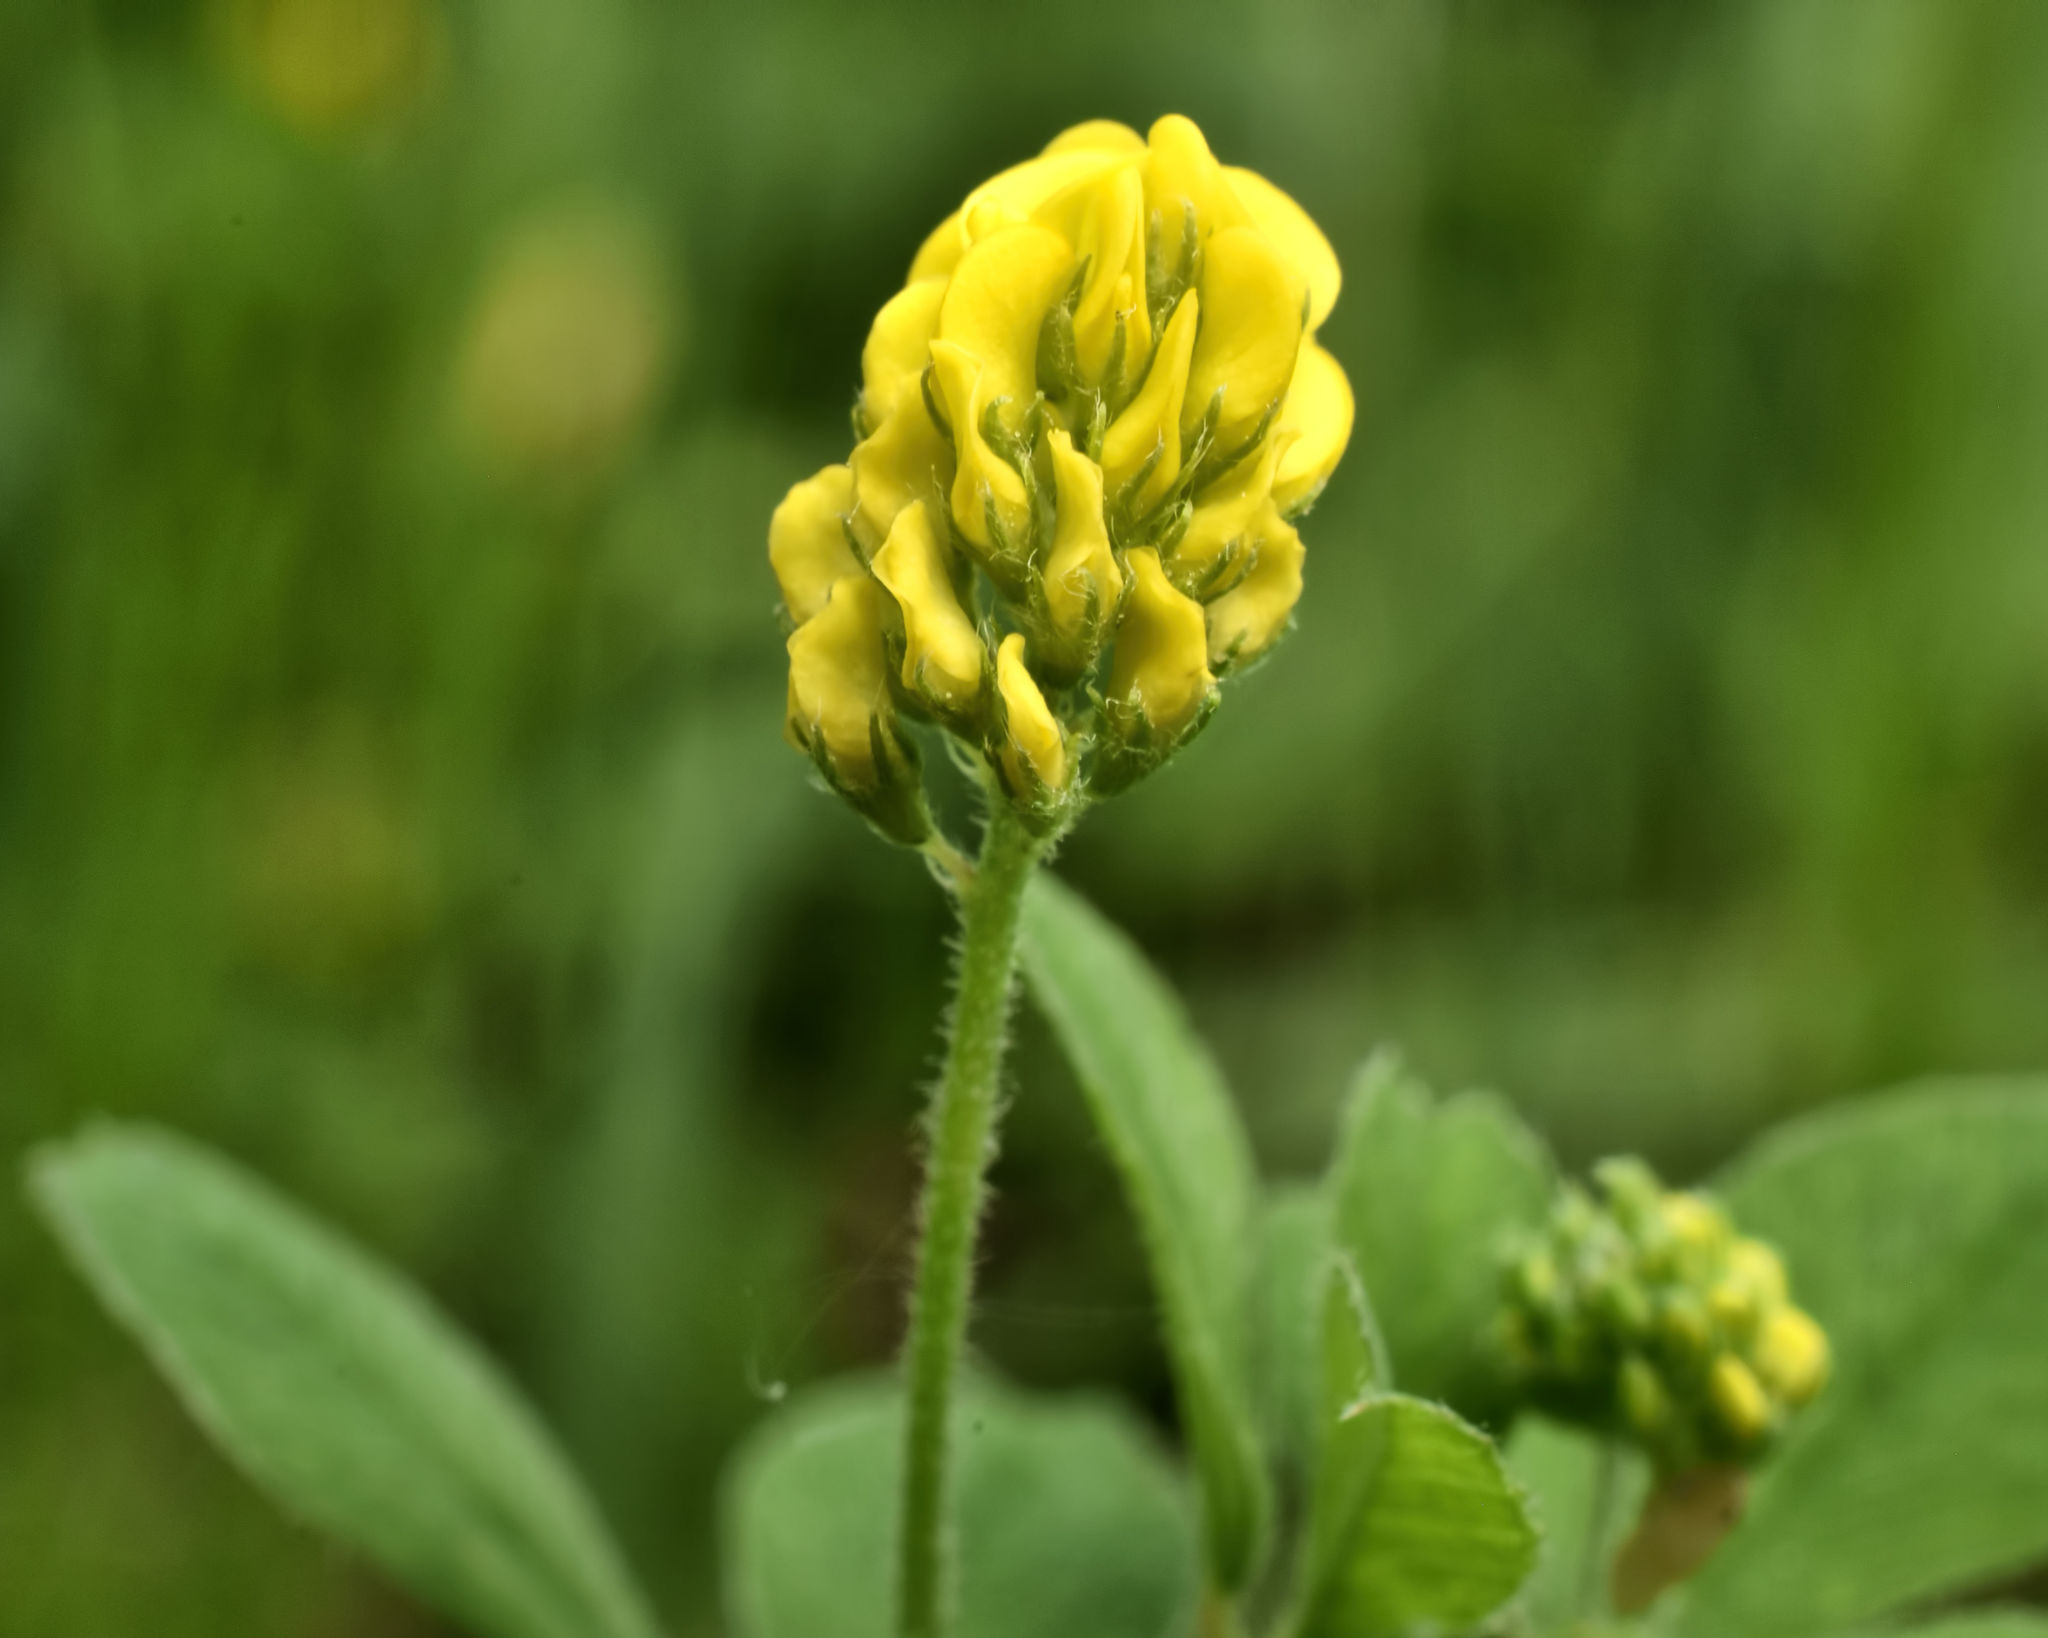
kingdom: Plantae
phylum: Tracheophyta
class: Magnoliopsida
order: Fabales
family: Fabaceae
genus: Medicago
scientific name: Medicago lupulina
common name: Black medick
